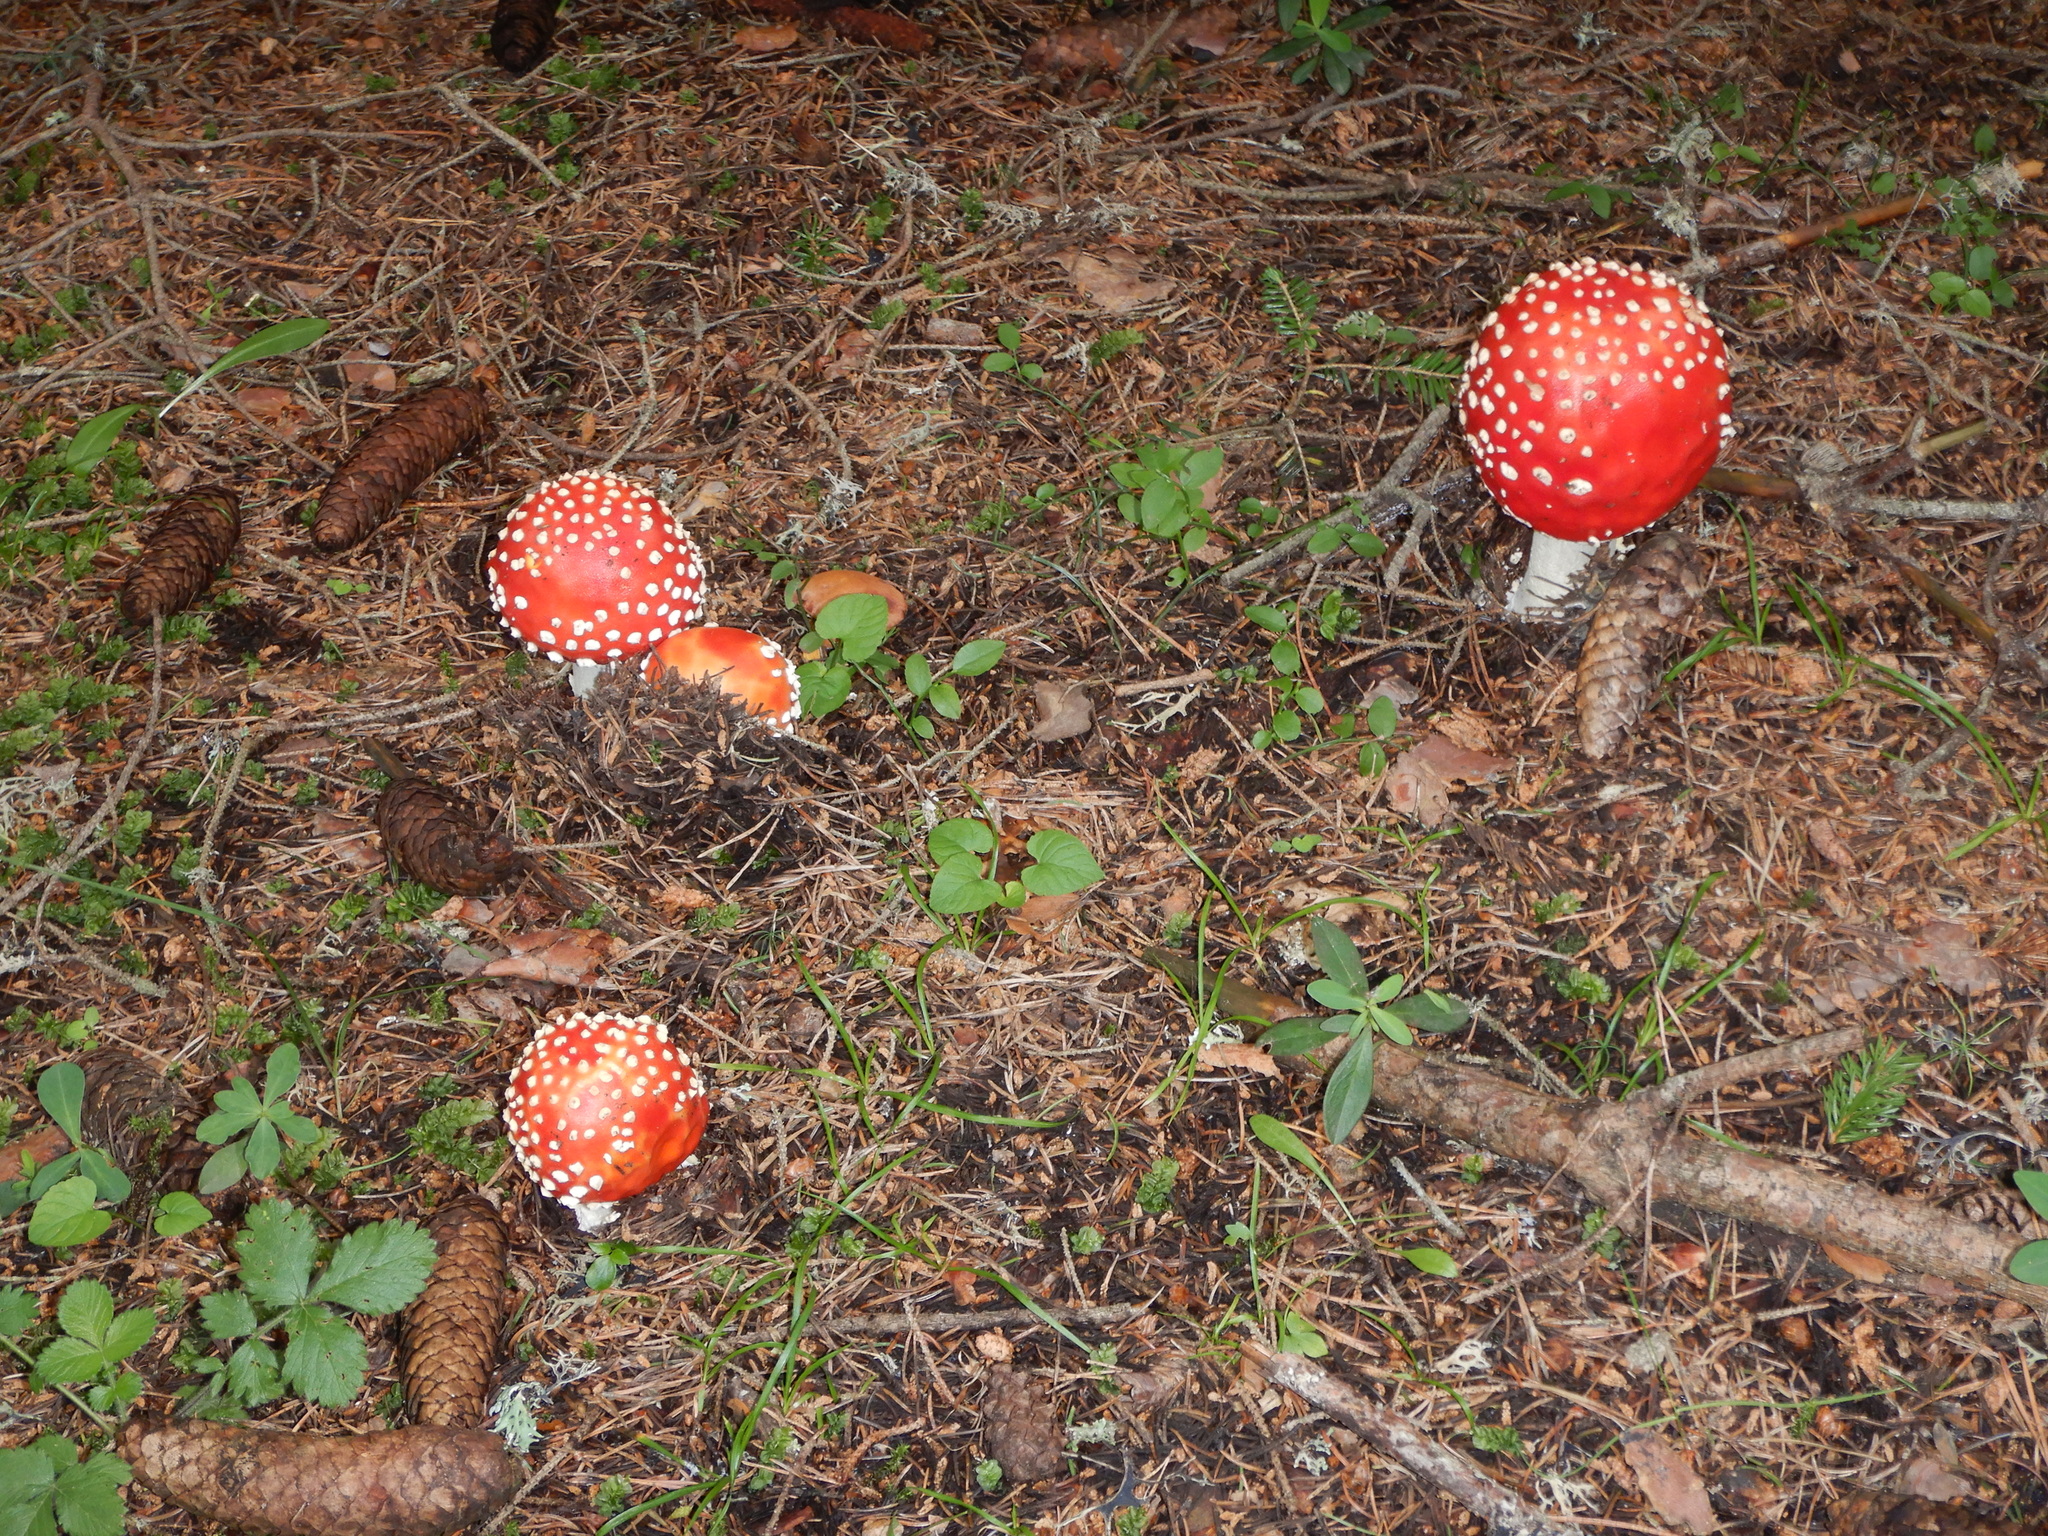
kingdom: Fungi
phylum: Basidiomycota
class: Agaricomycetes
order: Agaricales
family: Amanitaceae
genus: Amanita
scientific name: Amanita muscaria
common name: Fly agaric
